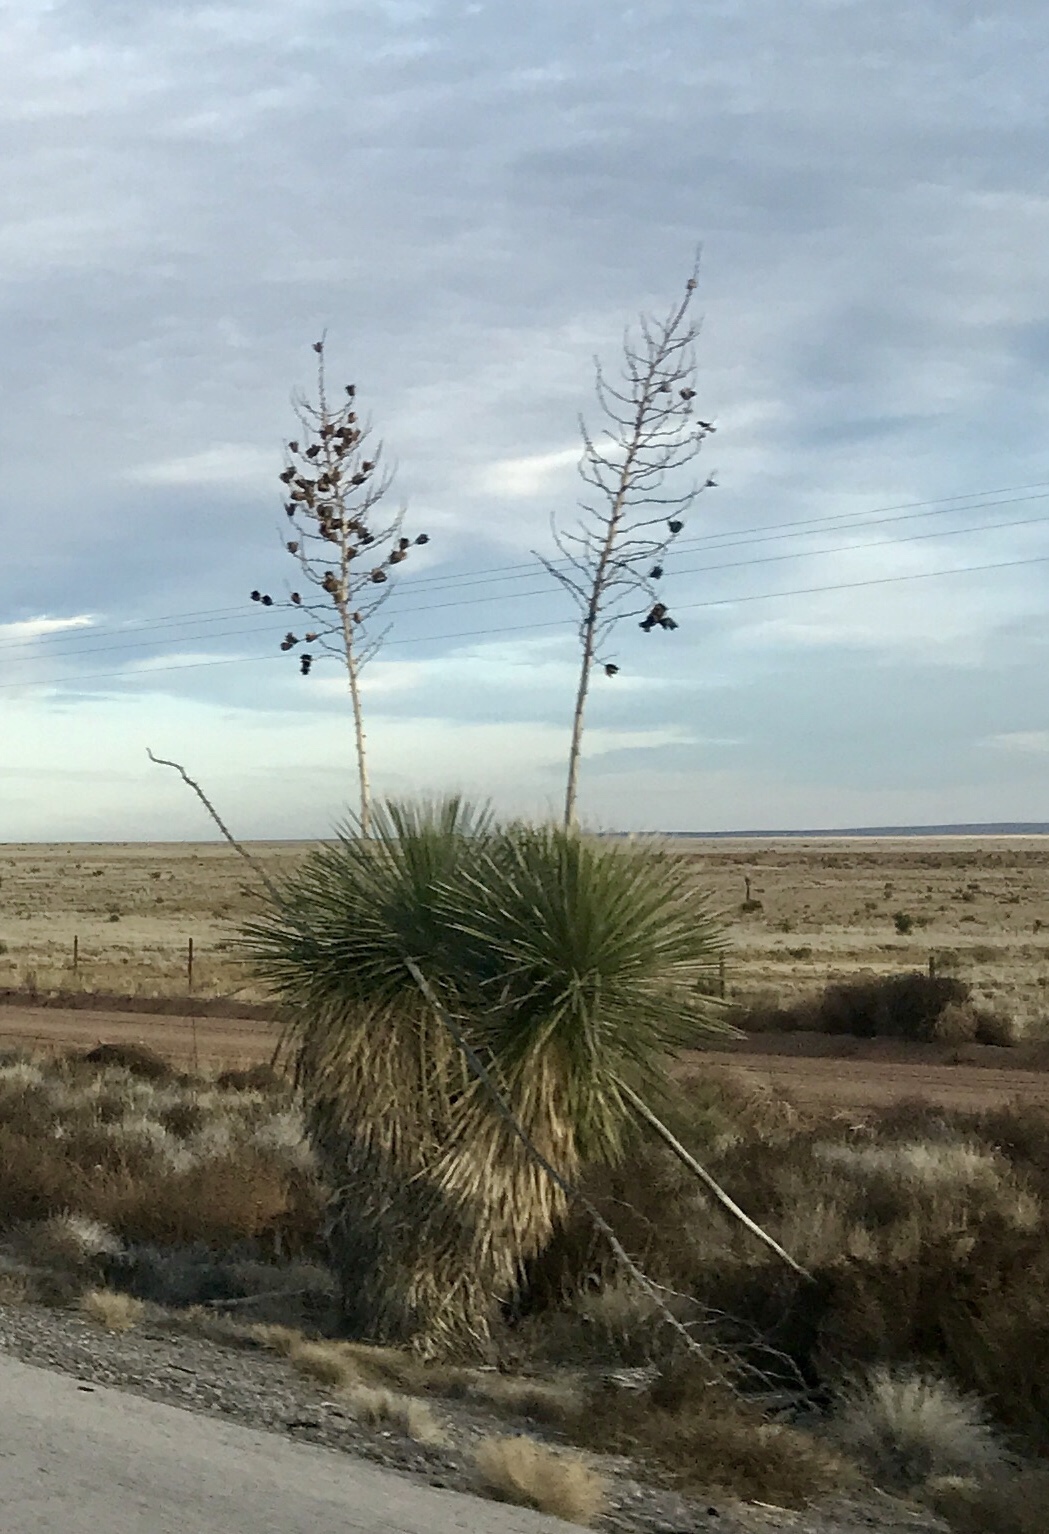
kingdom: Plantae
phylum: Tracheophyta
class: Liliopsida
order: Asparagales
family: Asparagaceae
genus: Yucca
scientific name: Yucca elata
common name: Palmella
